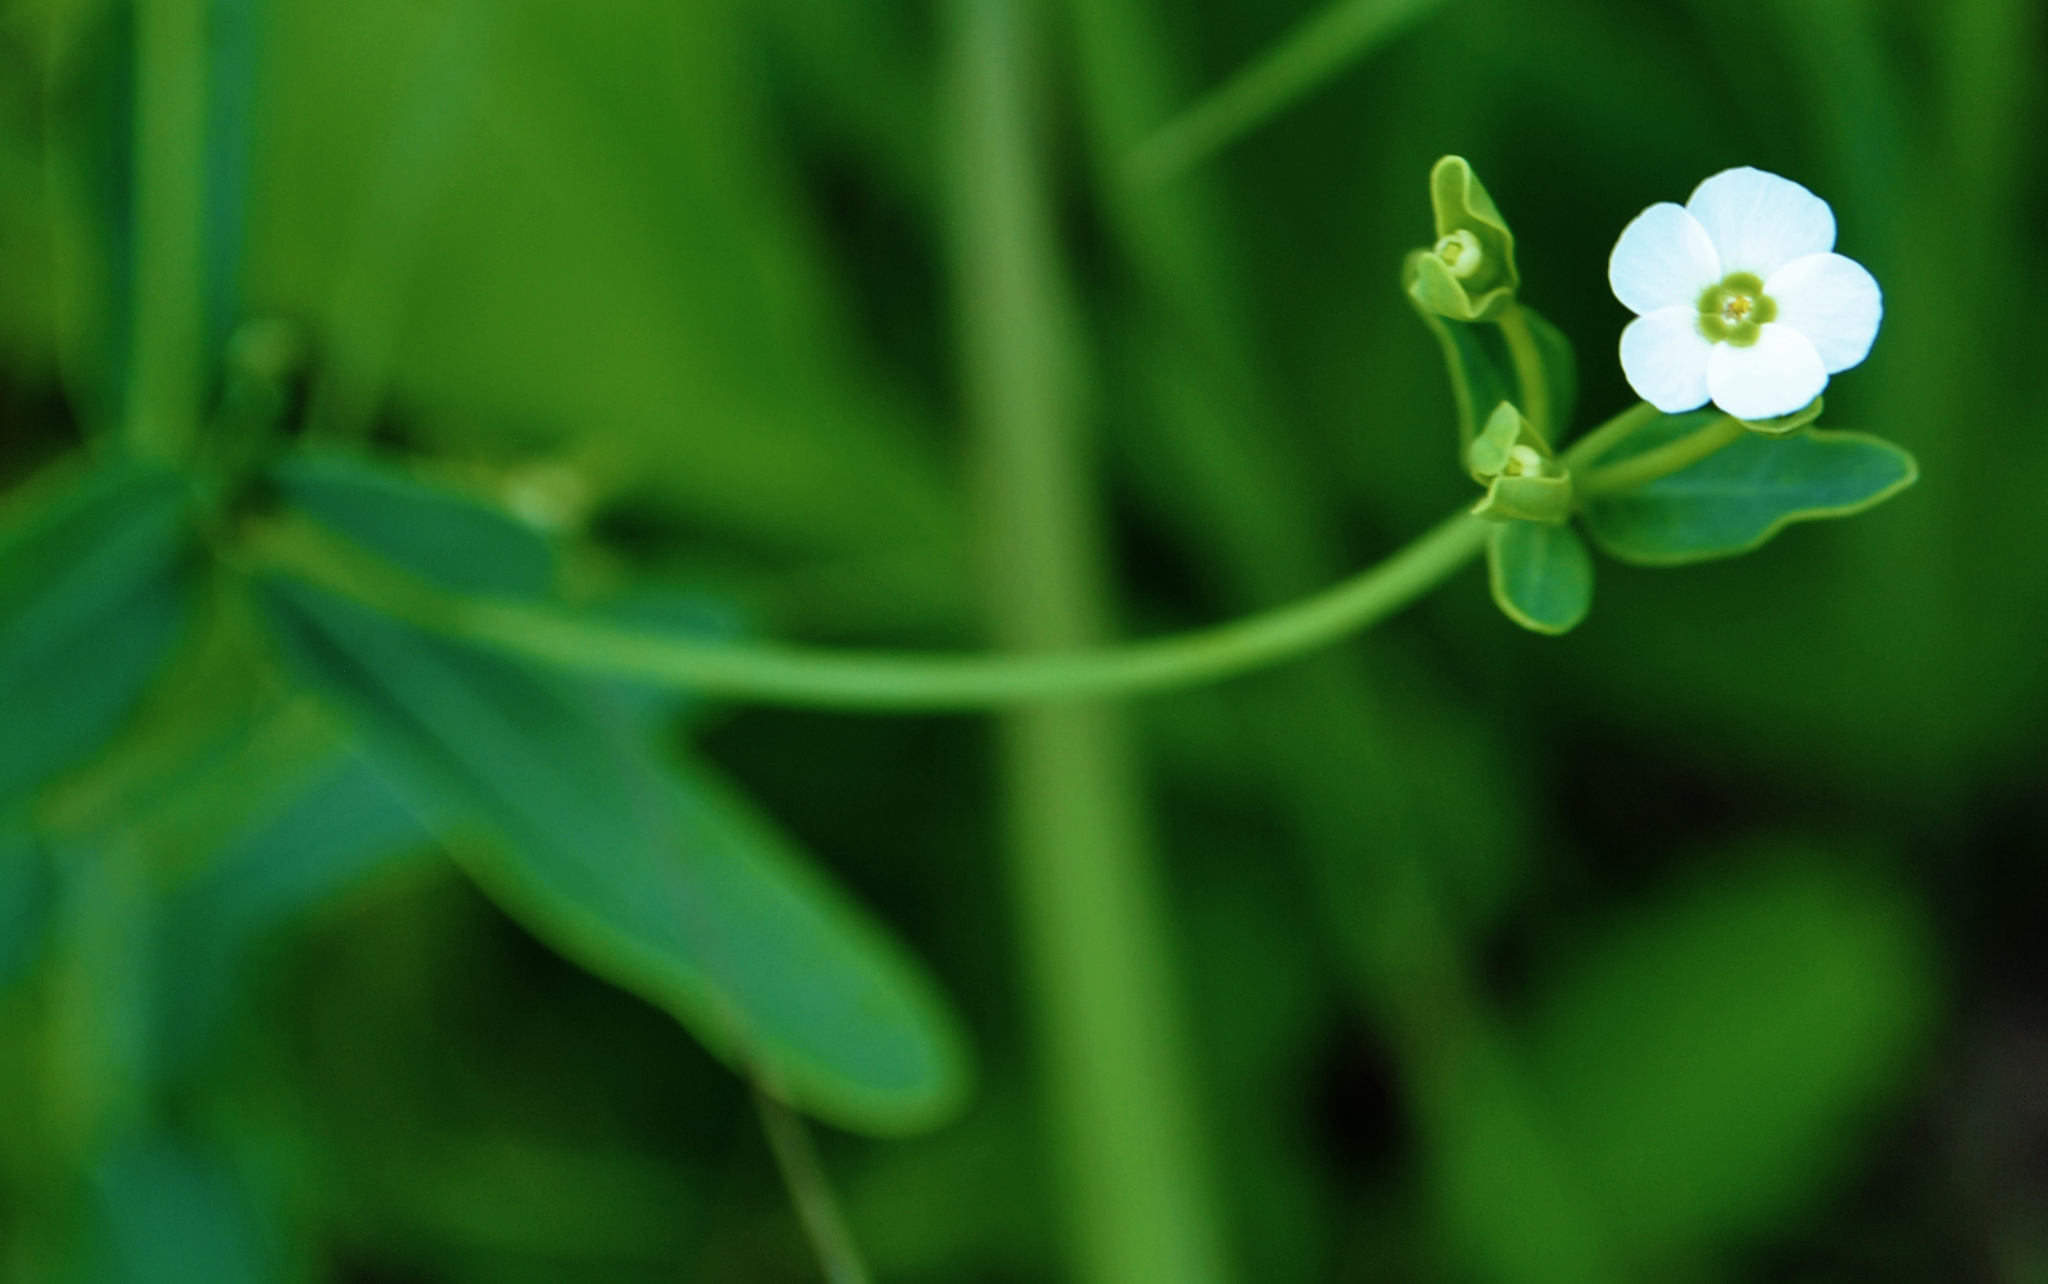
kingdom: Plantae
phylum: Tracheophyta
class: Magnoliopsida
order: Malpighiales
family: Euphorbiaceae
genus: Euphorbia
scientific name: Euphorbia corollata
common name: Flowering spurge
